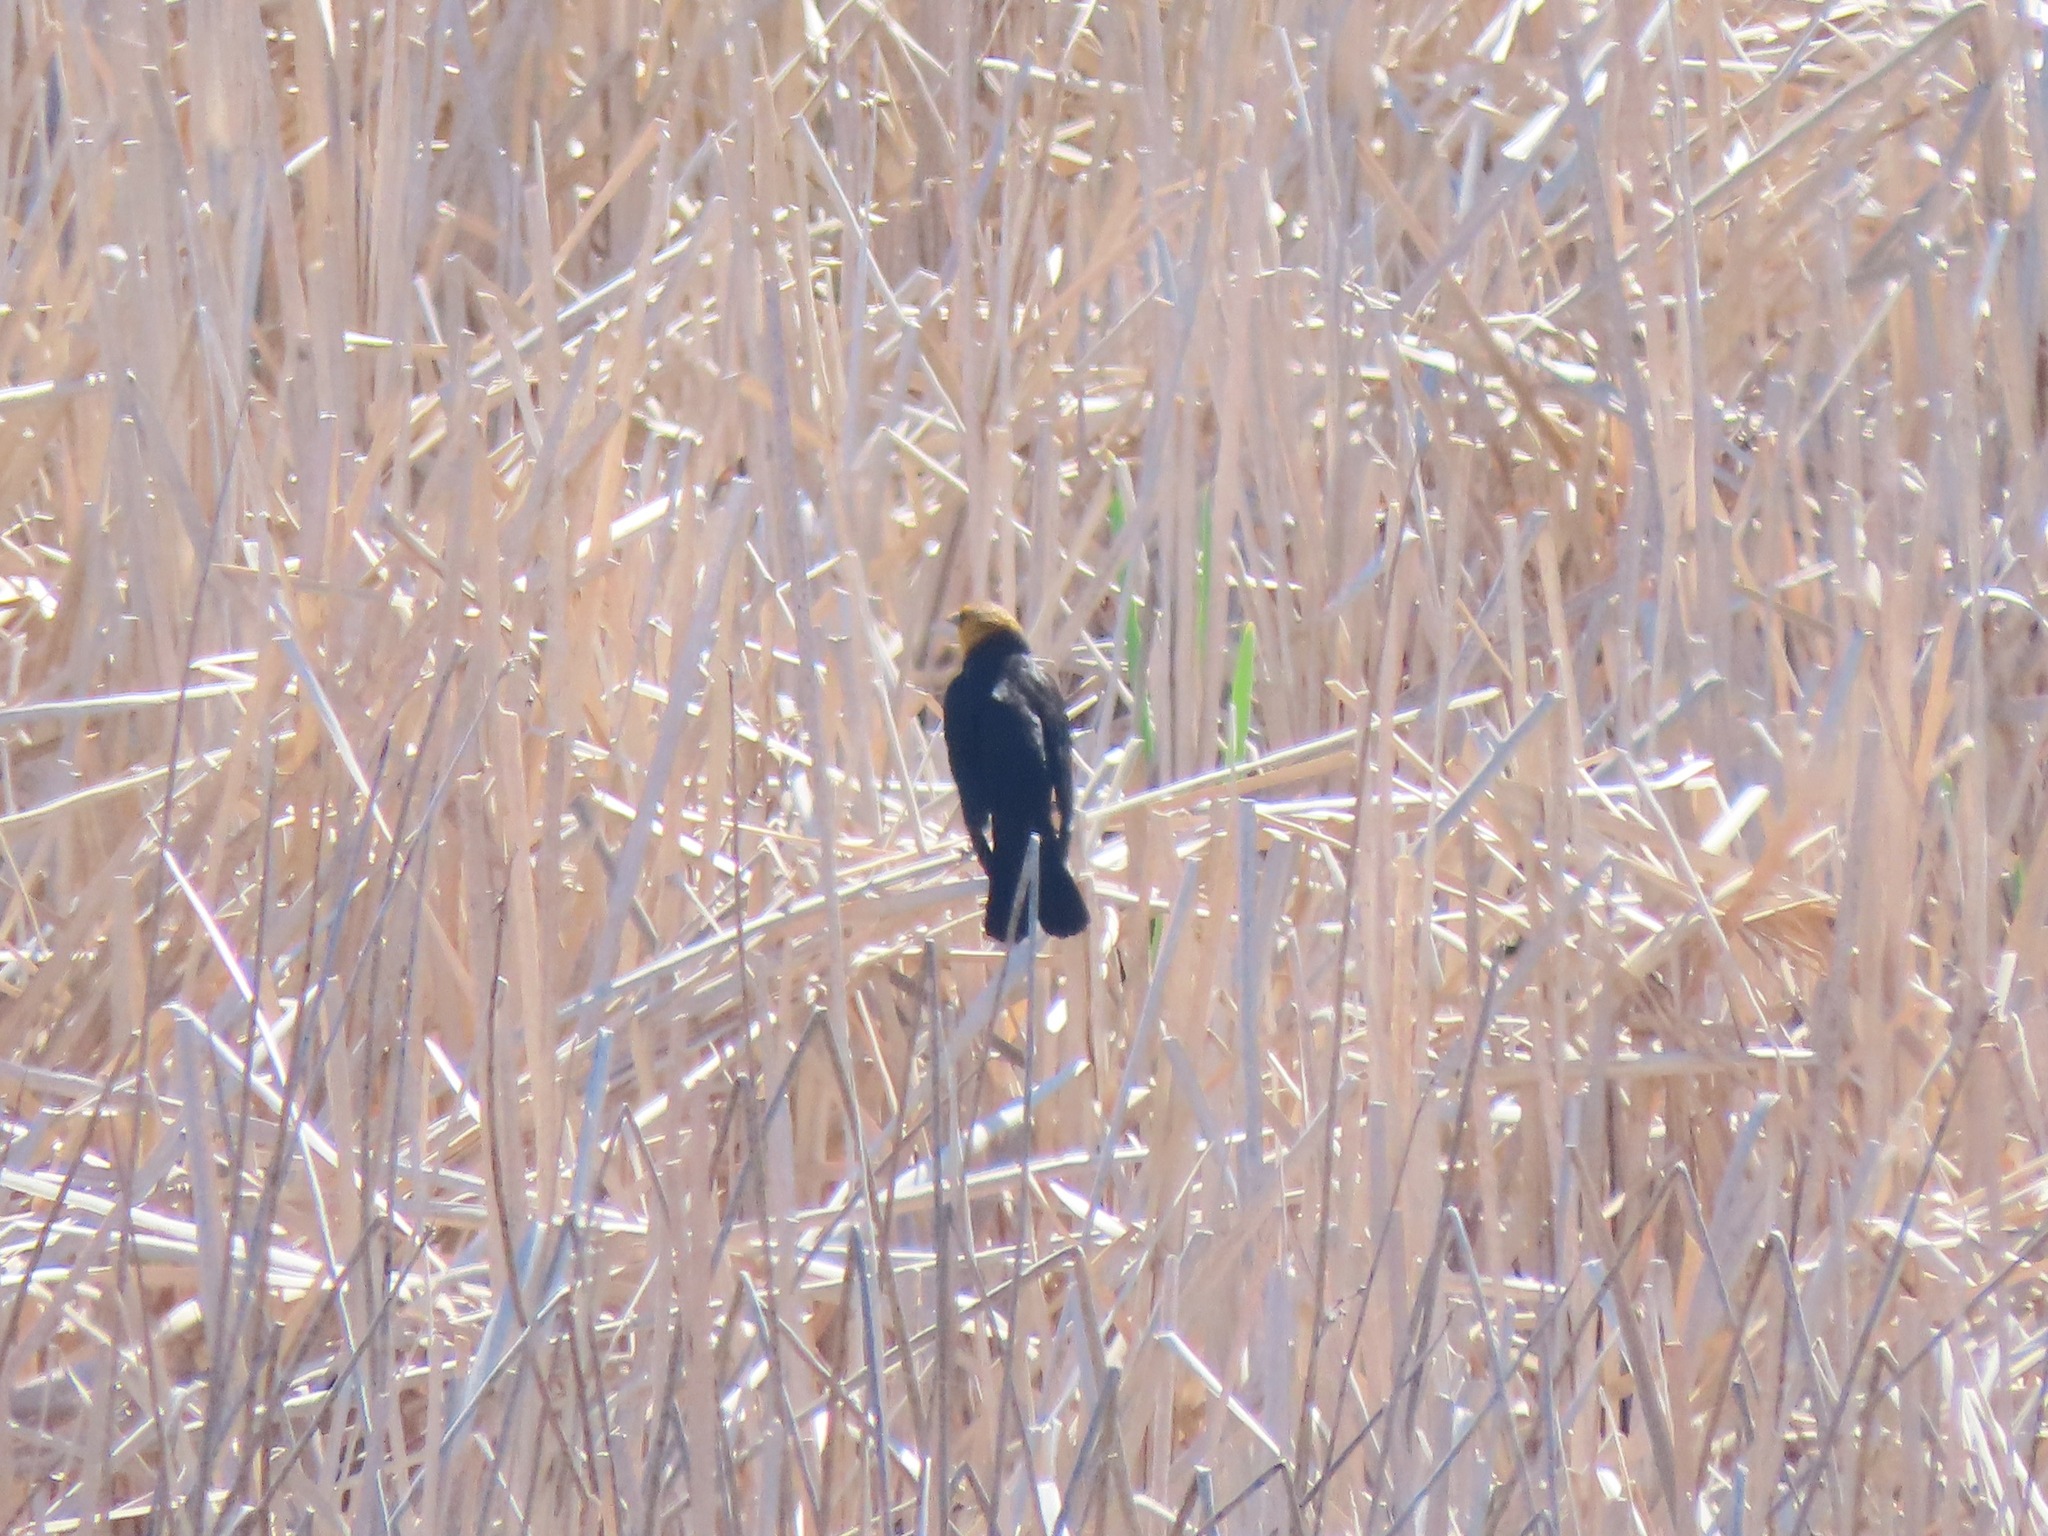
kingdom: Animalia
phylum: Chordata
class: Aves
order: Passeriformes
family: Icteridae
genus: Xanthocephalus
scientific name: Xanthocephalus xanthocephalus
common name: Yellow-headed blackbird
